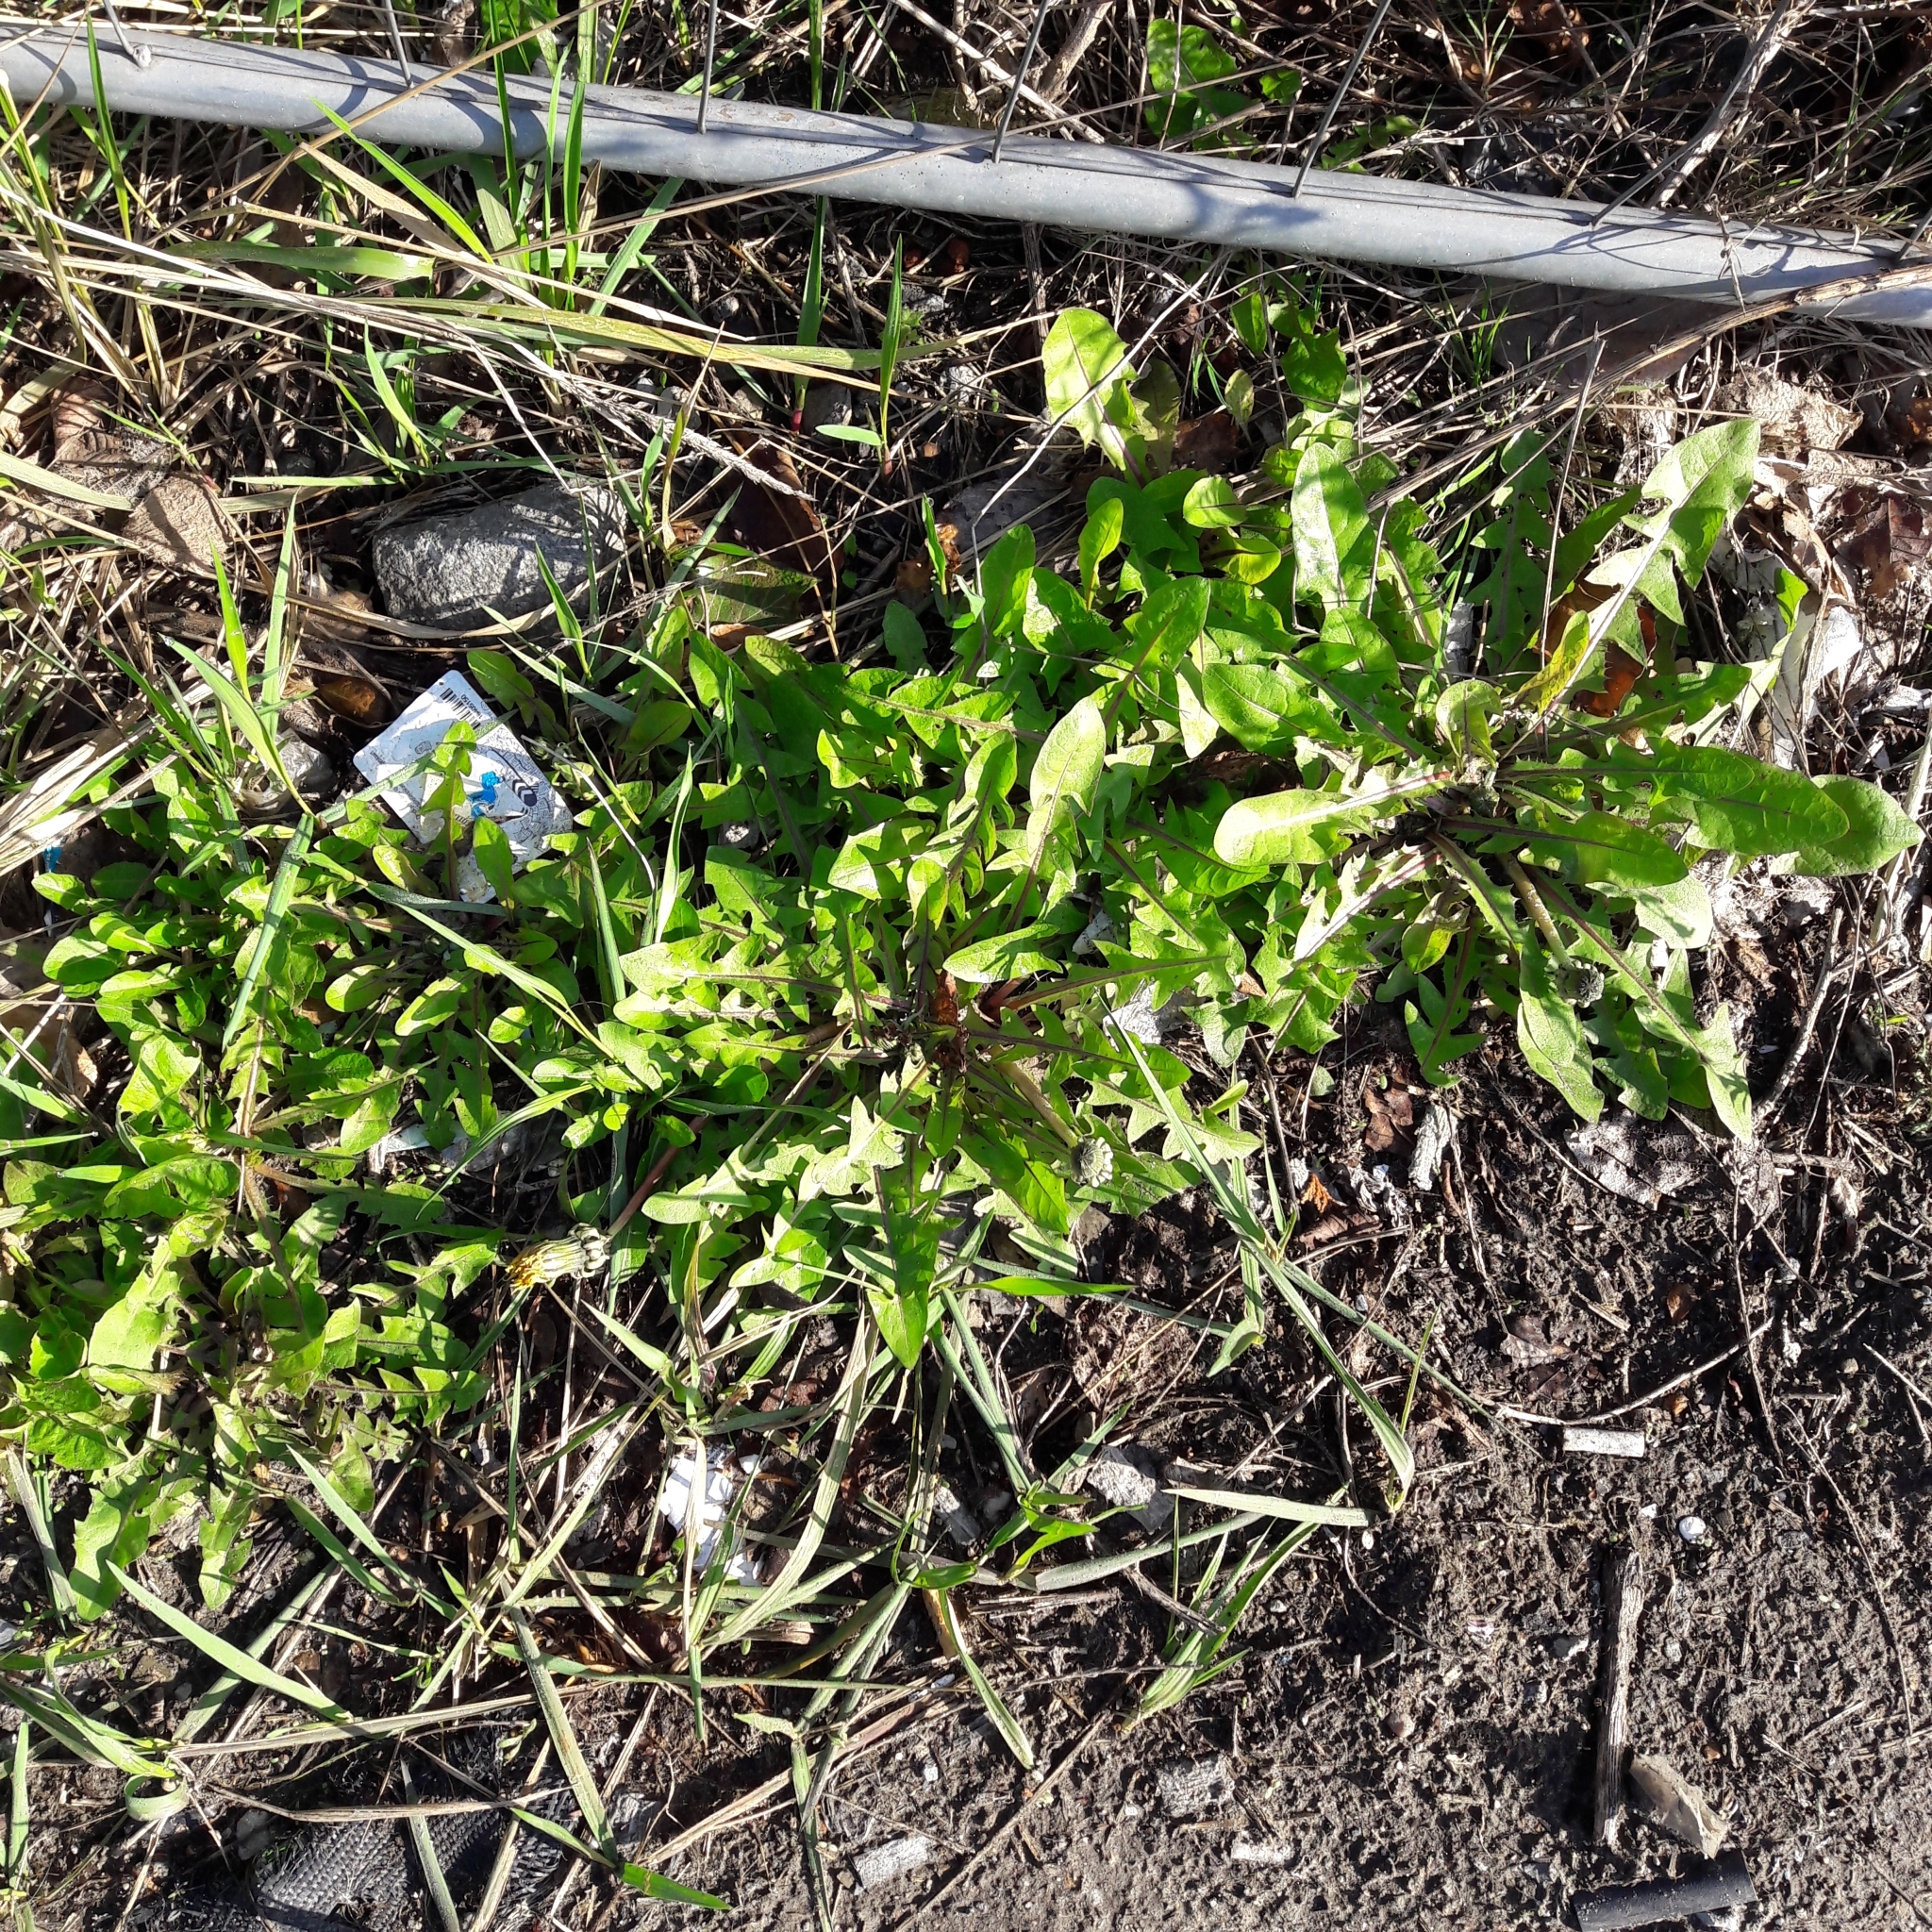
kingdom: Plantae
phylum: Tracheophyta
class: Magnoliopsida
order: Asterales
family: Asteraceae
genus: Taraxacum
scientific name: Taraxacum officinale
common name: Common dandelion
